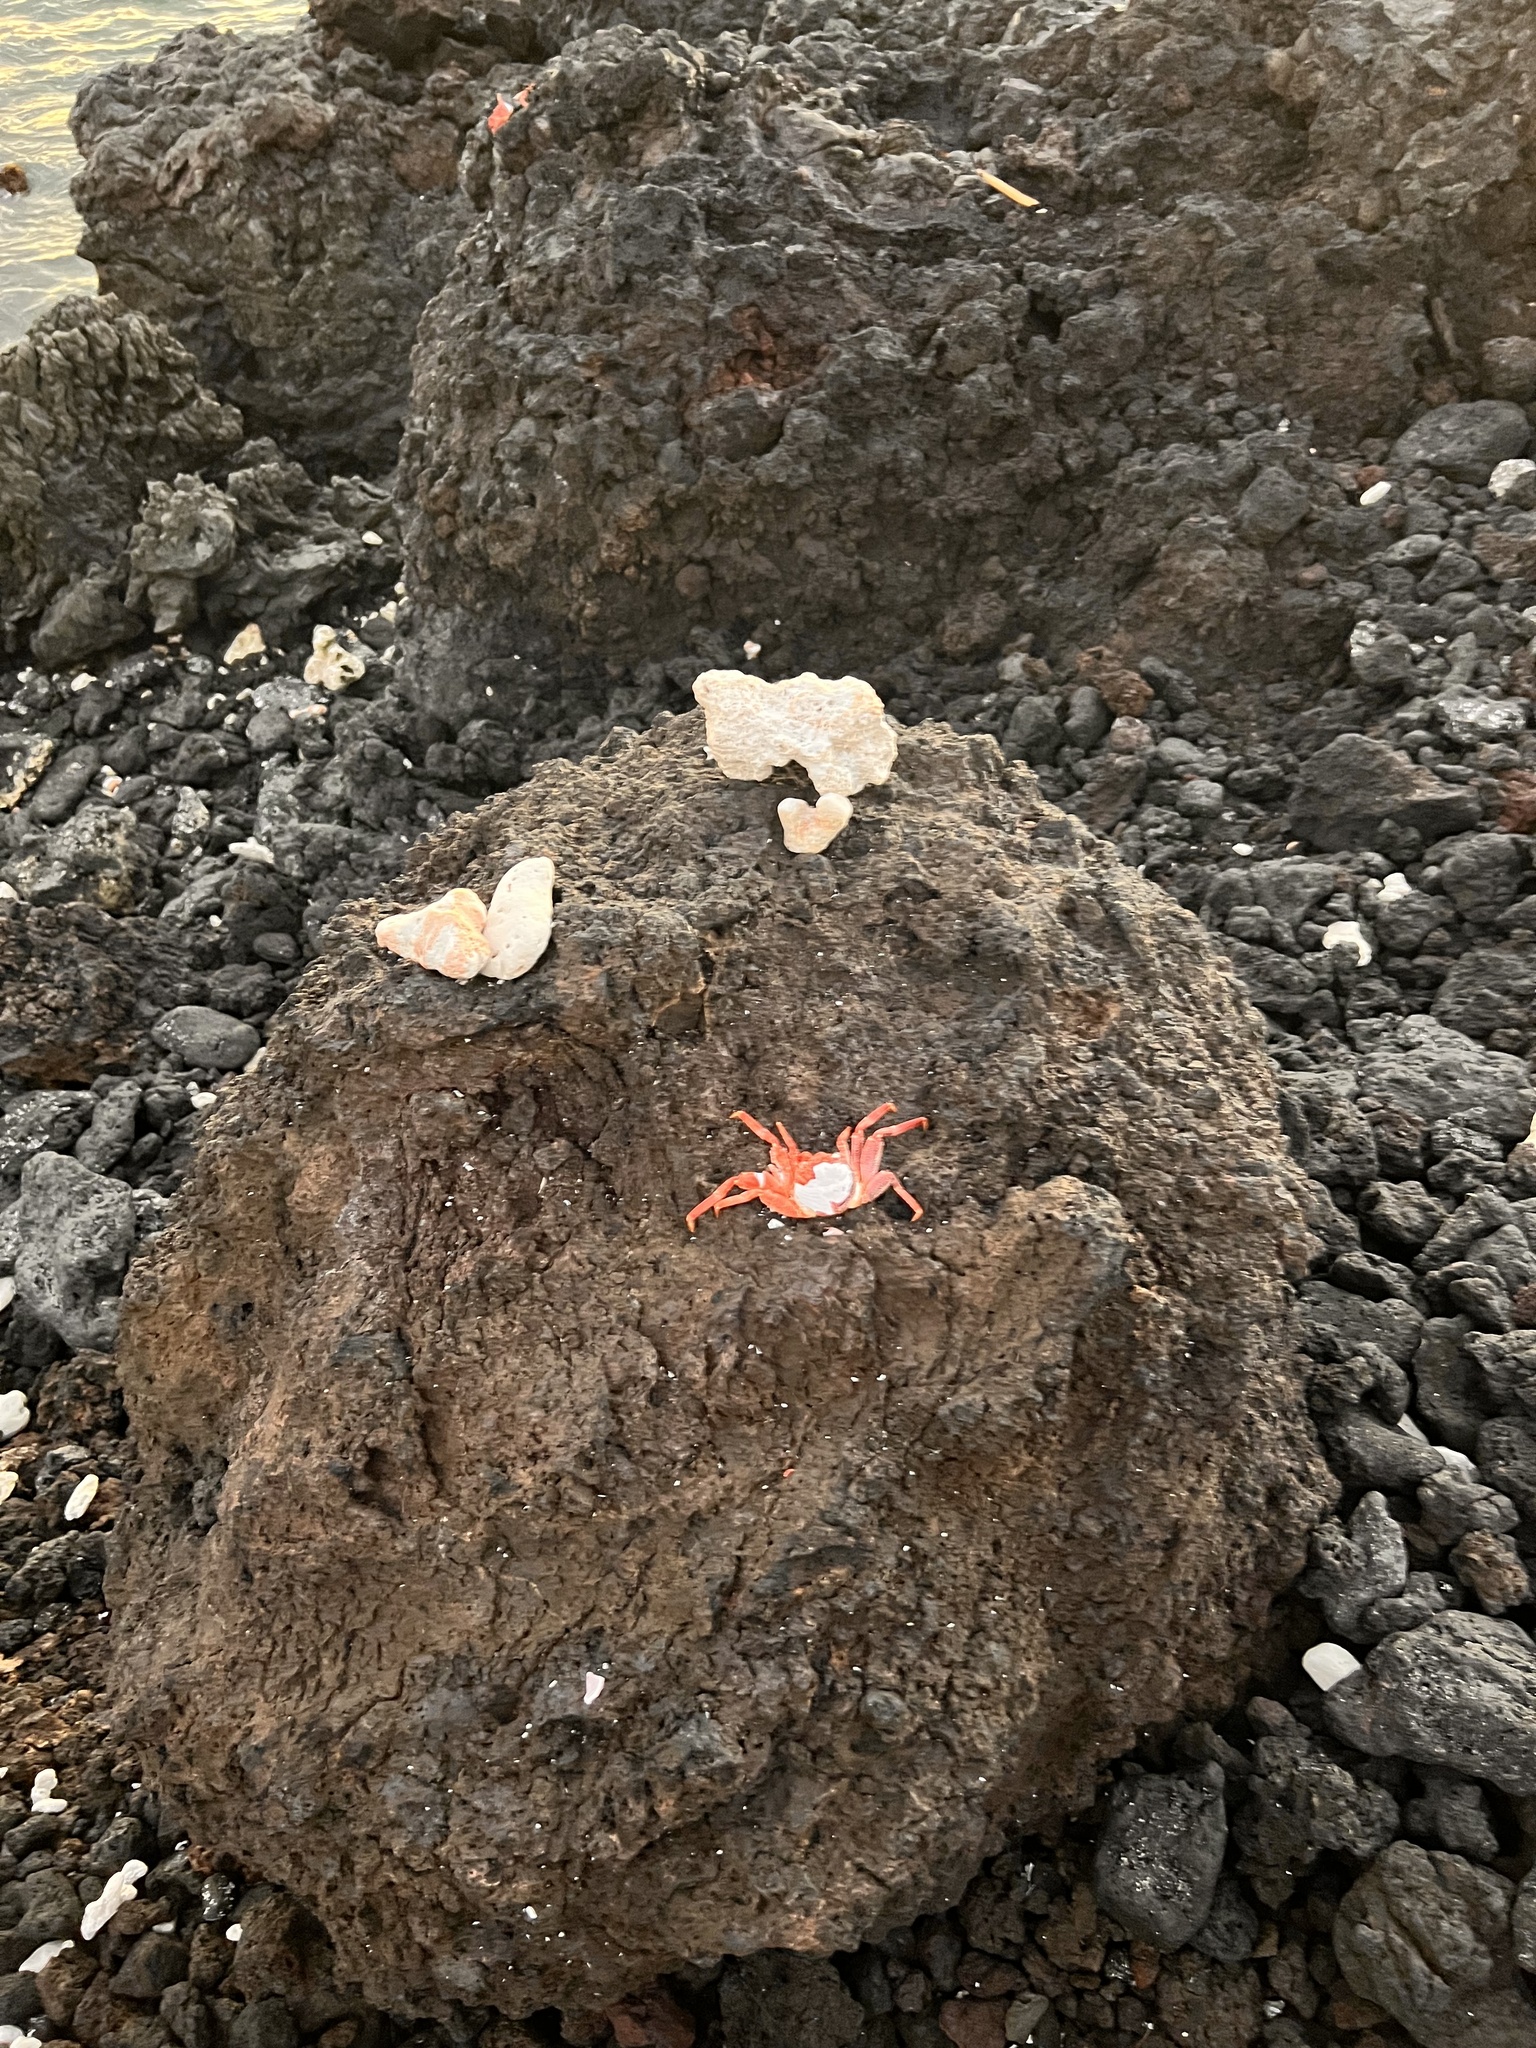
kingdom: Animalia
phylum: Arthropoda
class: Malacostraca
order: Decapoda
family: Grapsidae
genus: Grapsus
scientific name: Grapsus tenuicrustatus
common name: Natal lightfoot crab
